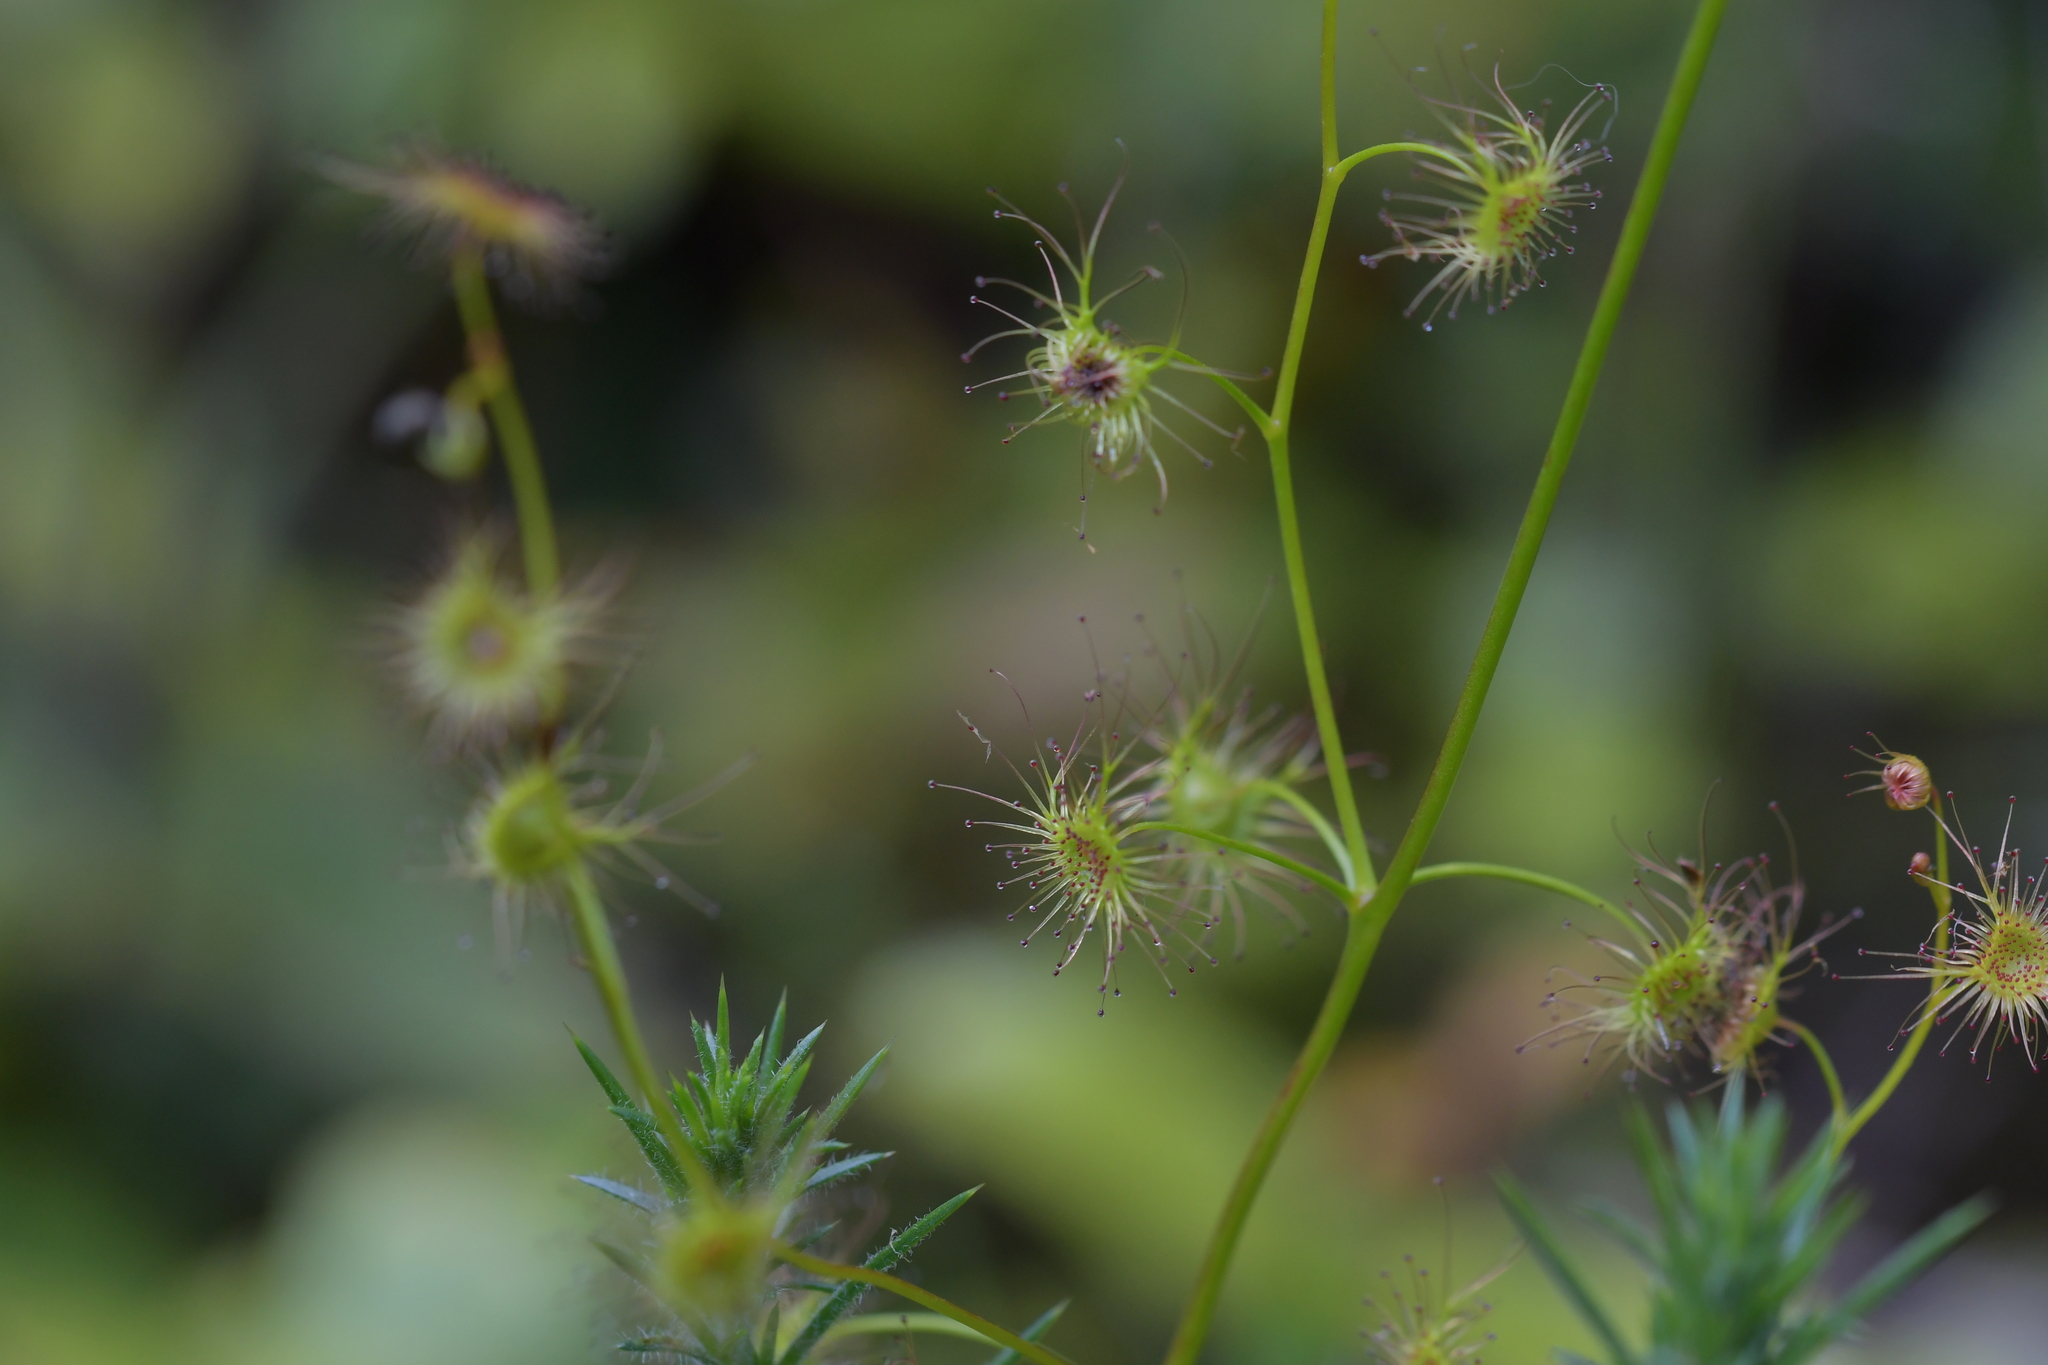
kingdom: Plantae
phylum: Tracheophyta
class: Magnoliopsida
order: Caryophyllales
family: Droseraceae
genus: Drosera
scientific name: Drosera peltata
